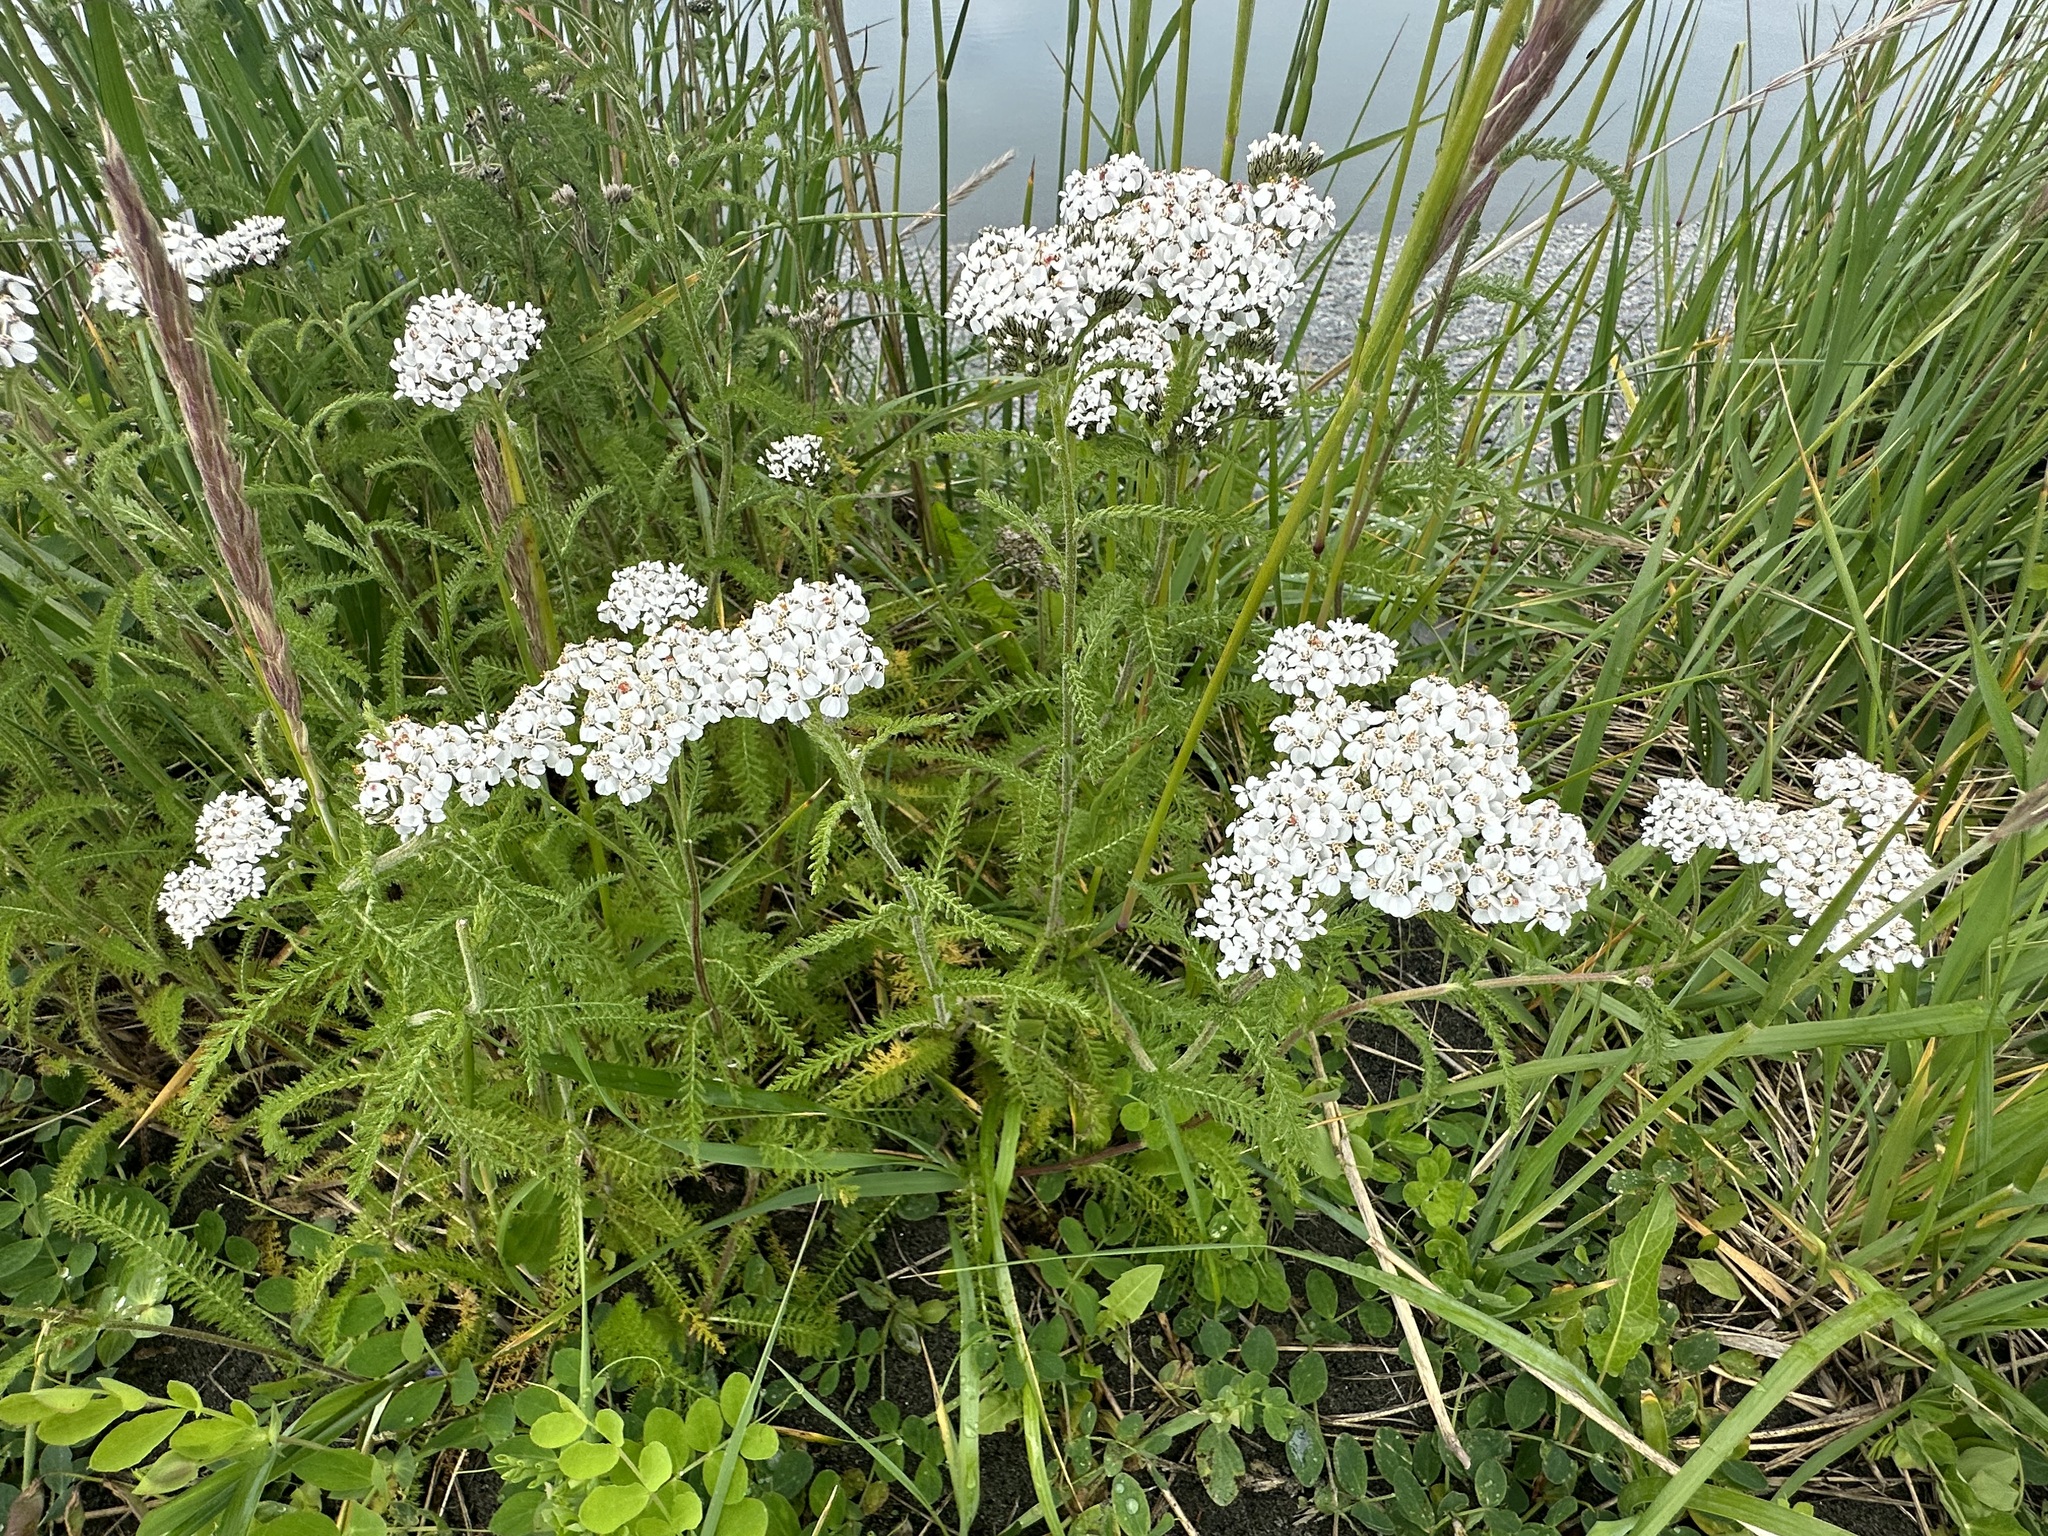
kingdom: Plantae
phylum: Tracheophyta
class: Magnoliopsida
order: Asterales
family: Asteraceae
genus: Achillea
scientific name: Achillea millefolium
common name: Yarrow
